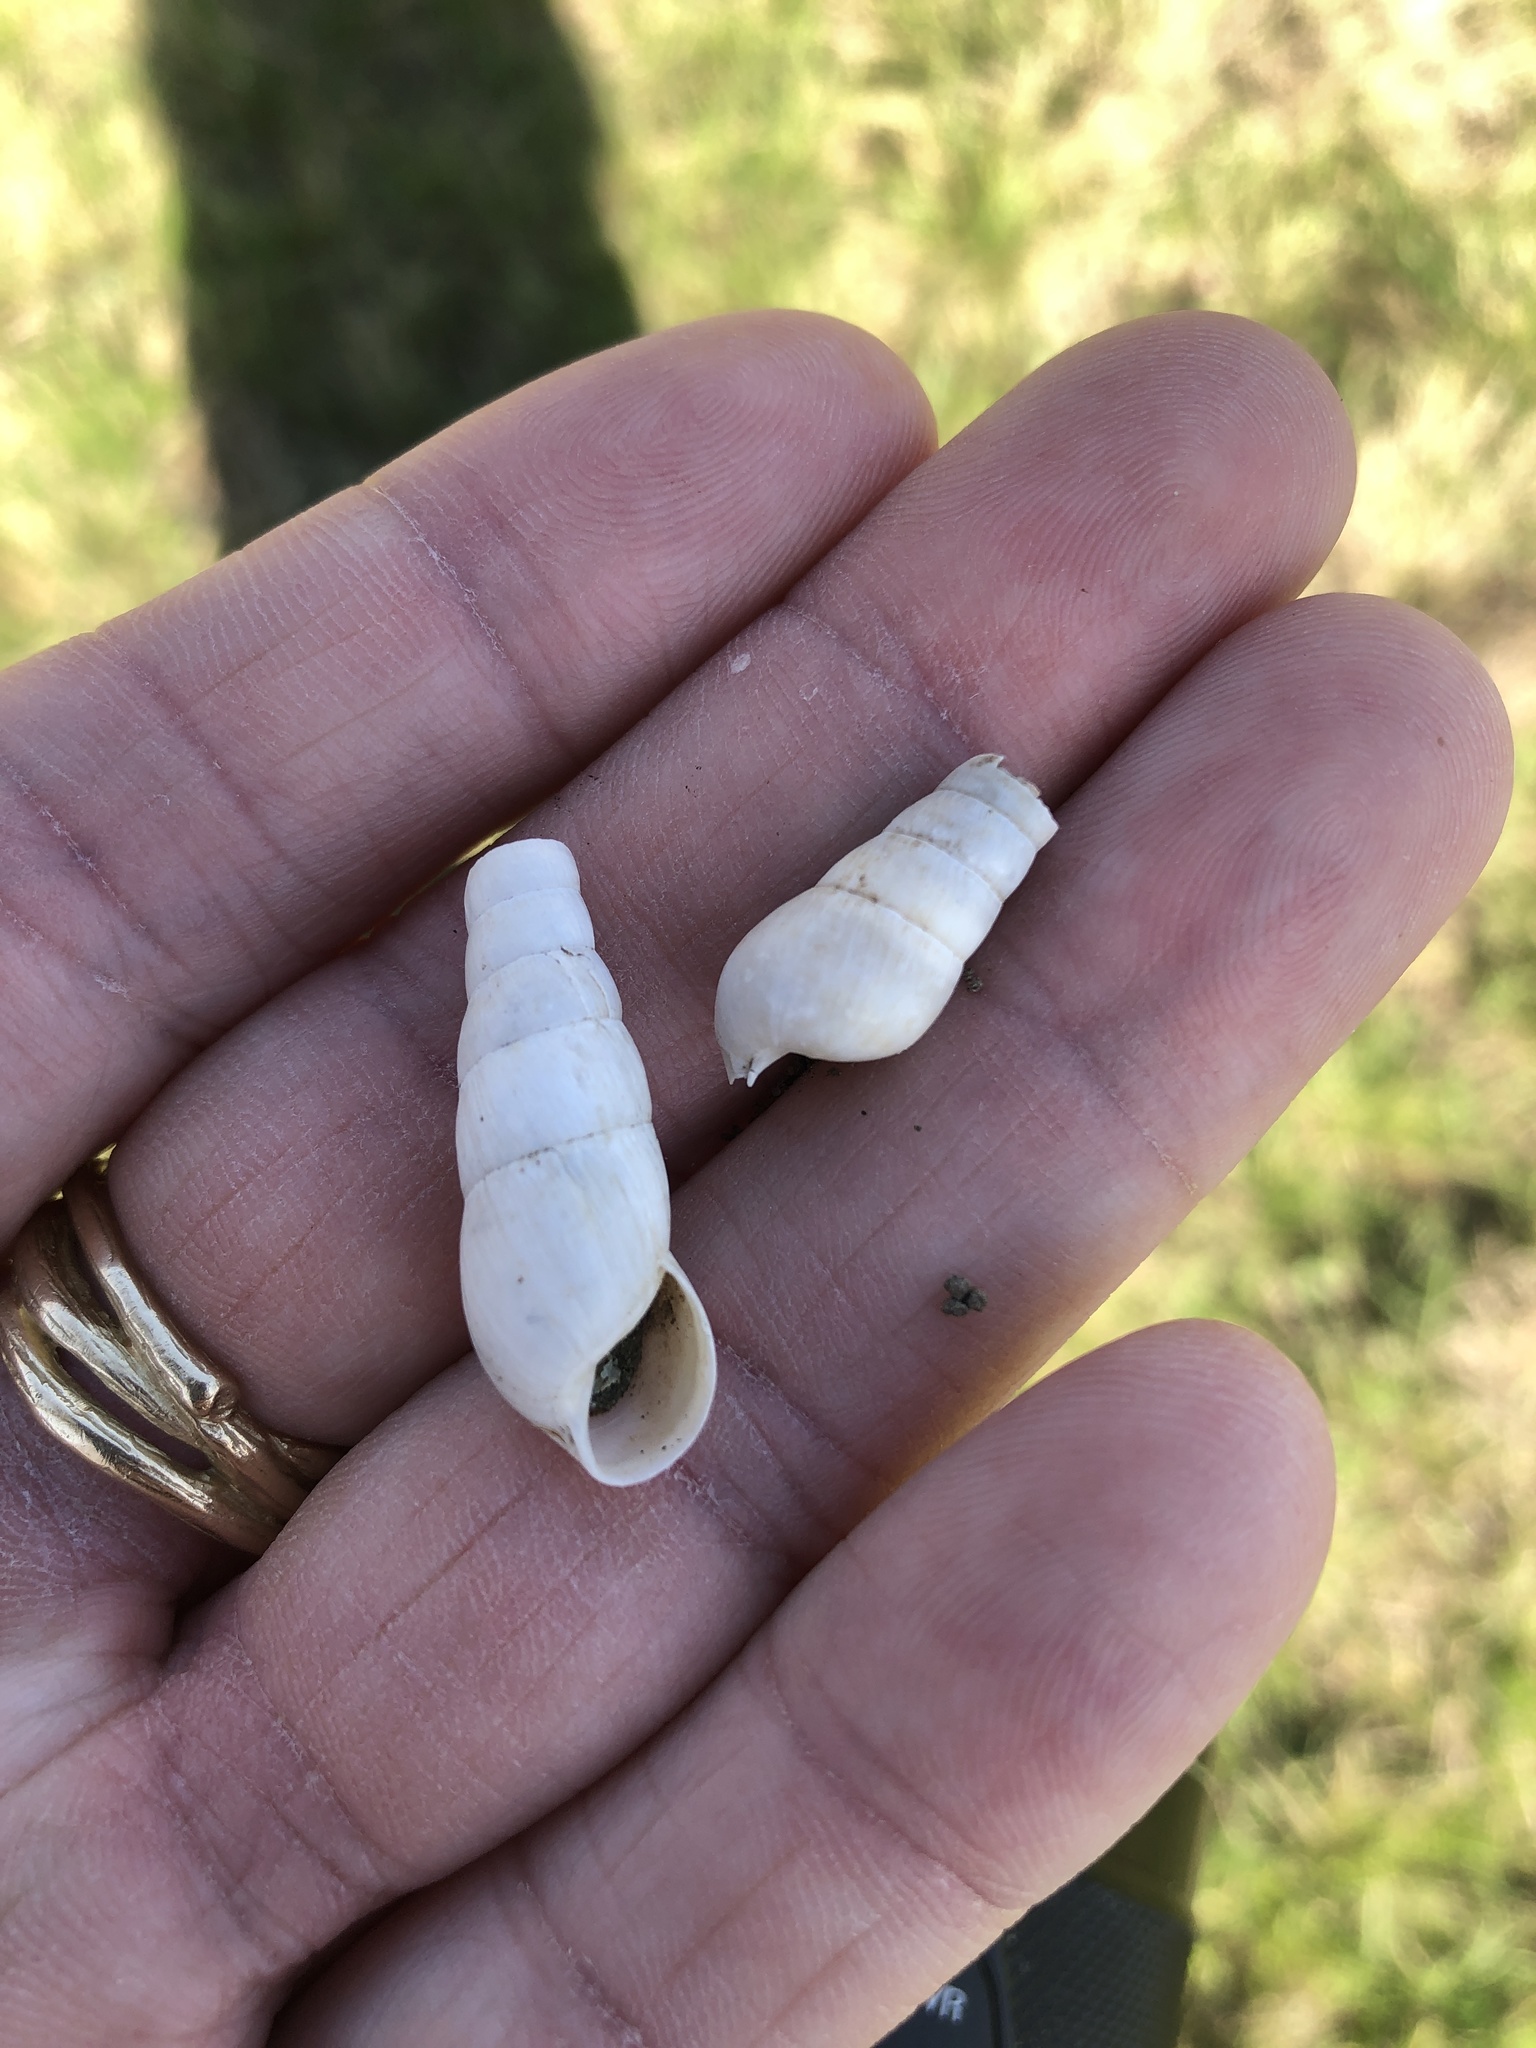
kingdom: Animalia
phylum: Mollusca
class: Gastropoda
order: Stylommatophora
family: Achatinidae
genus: Rumina
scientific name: Rumina decollata
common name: Decollate snail
